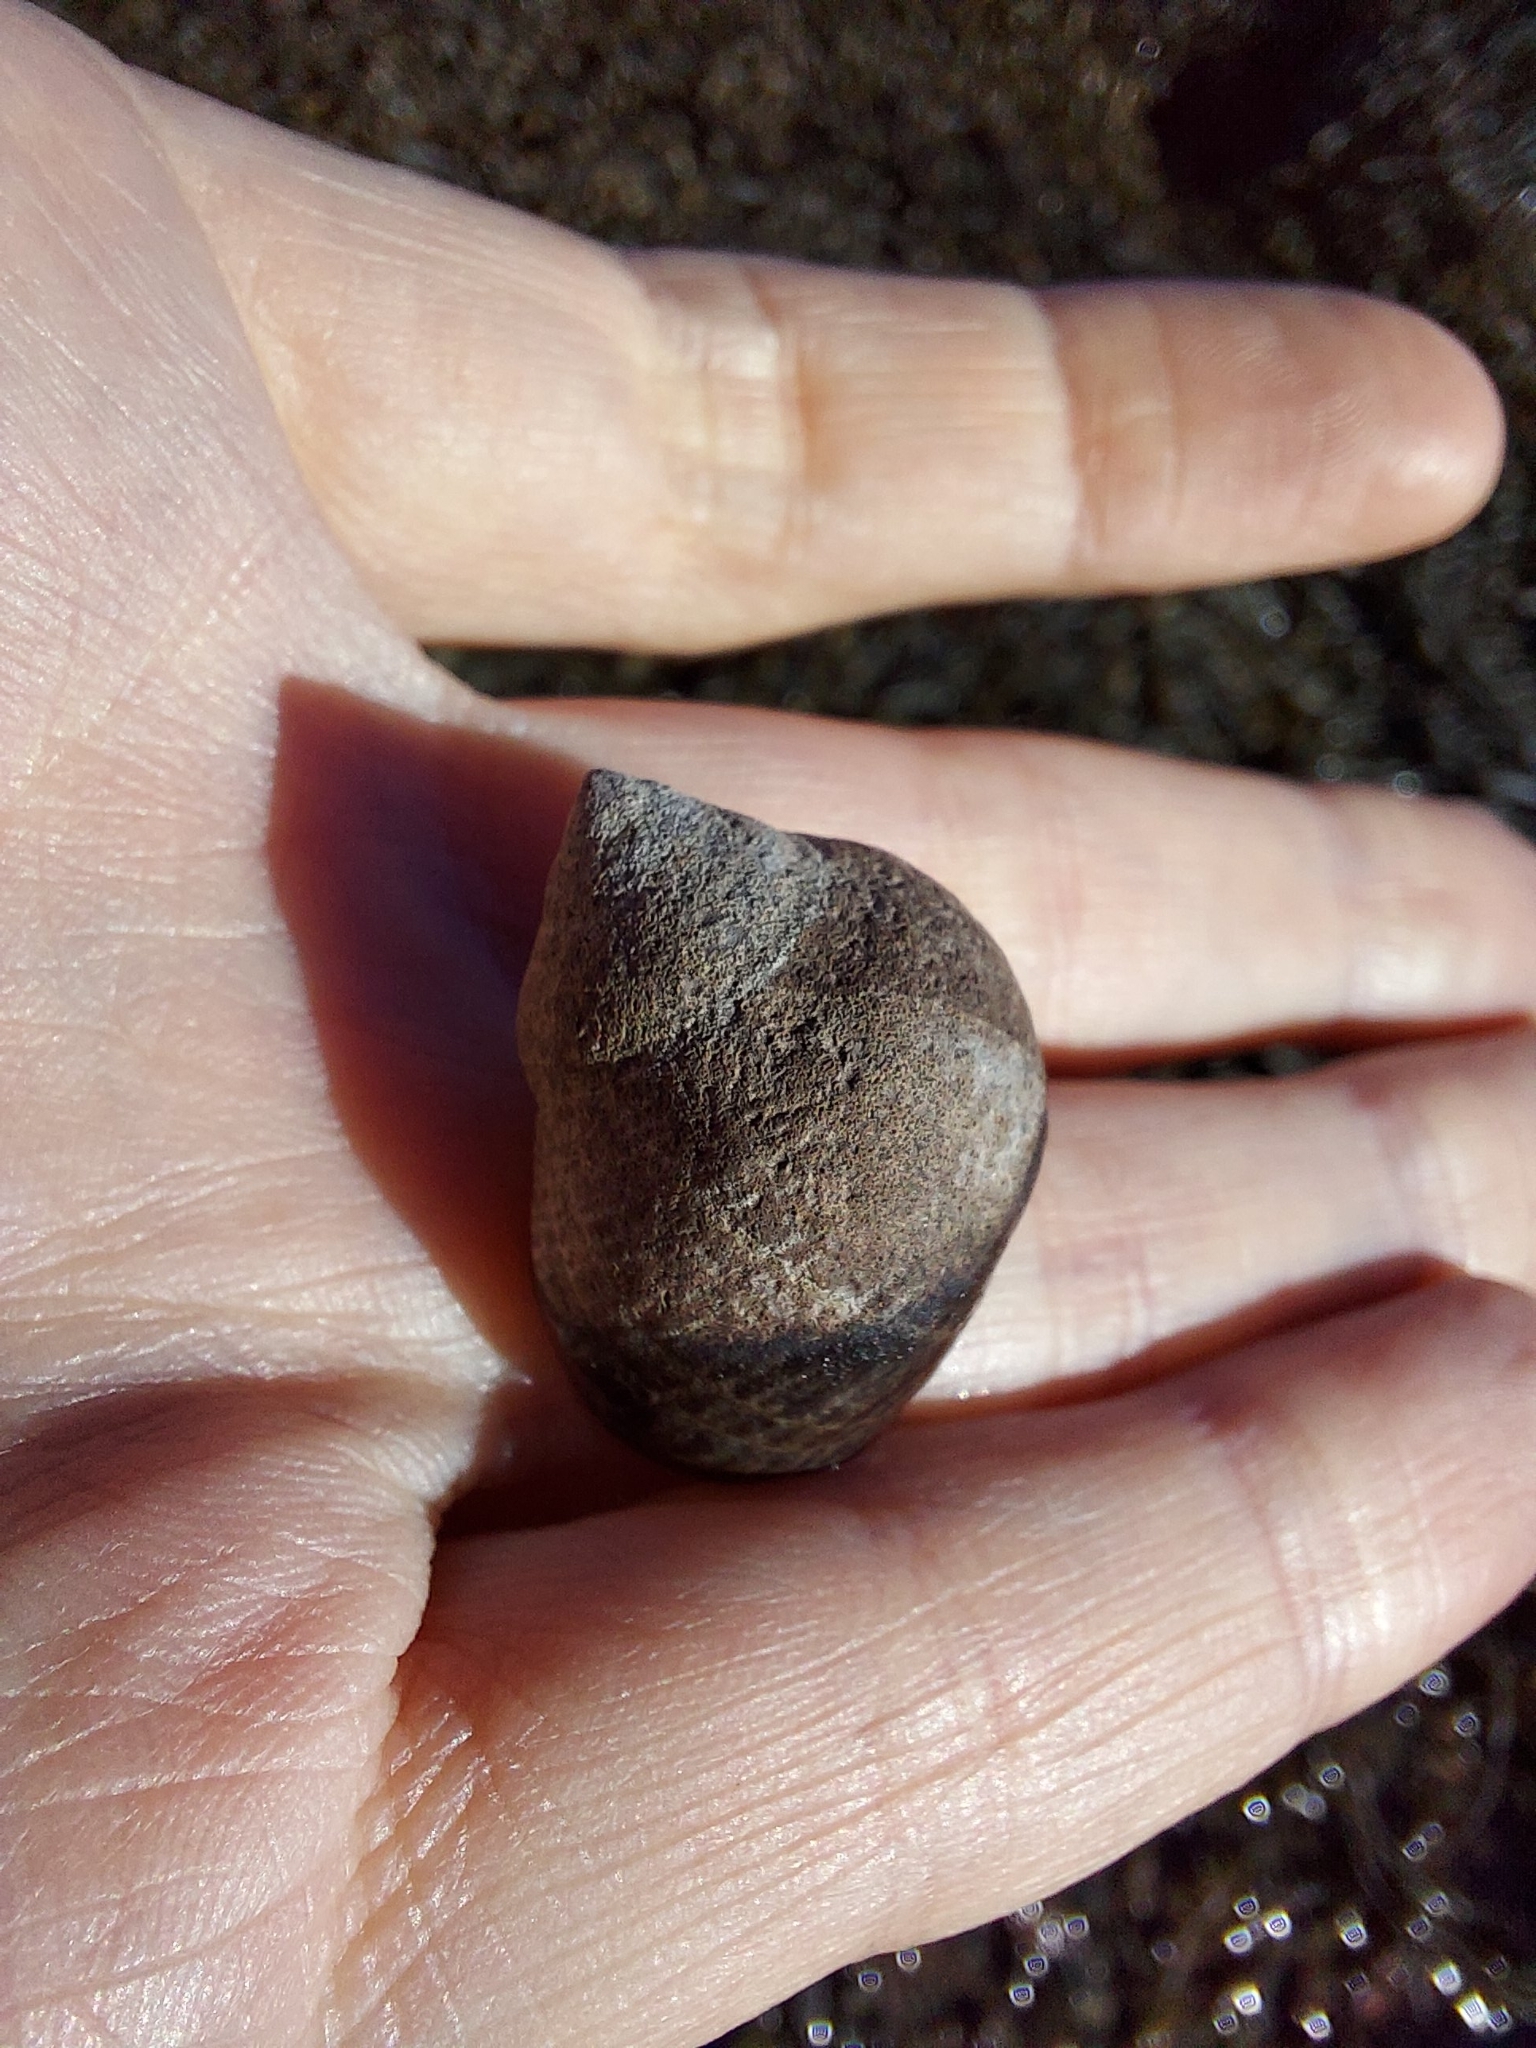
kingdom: Animalia
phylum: Mollusca
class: Gastropoda
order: Littorinimorpha
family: Littorinidae
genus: Littorina
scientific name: Littorina littorea
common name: Common periwinkle
